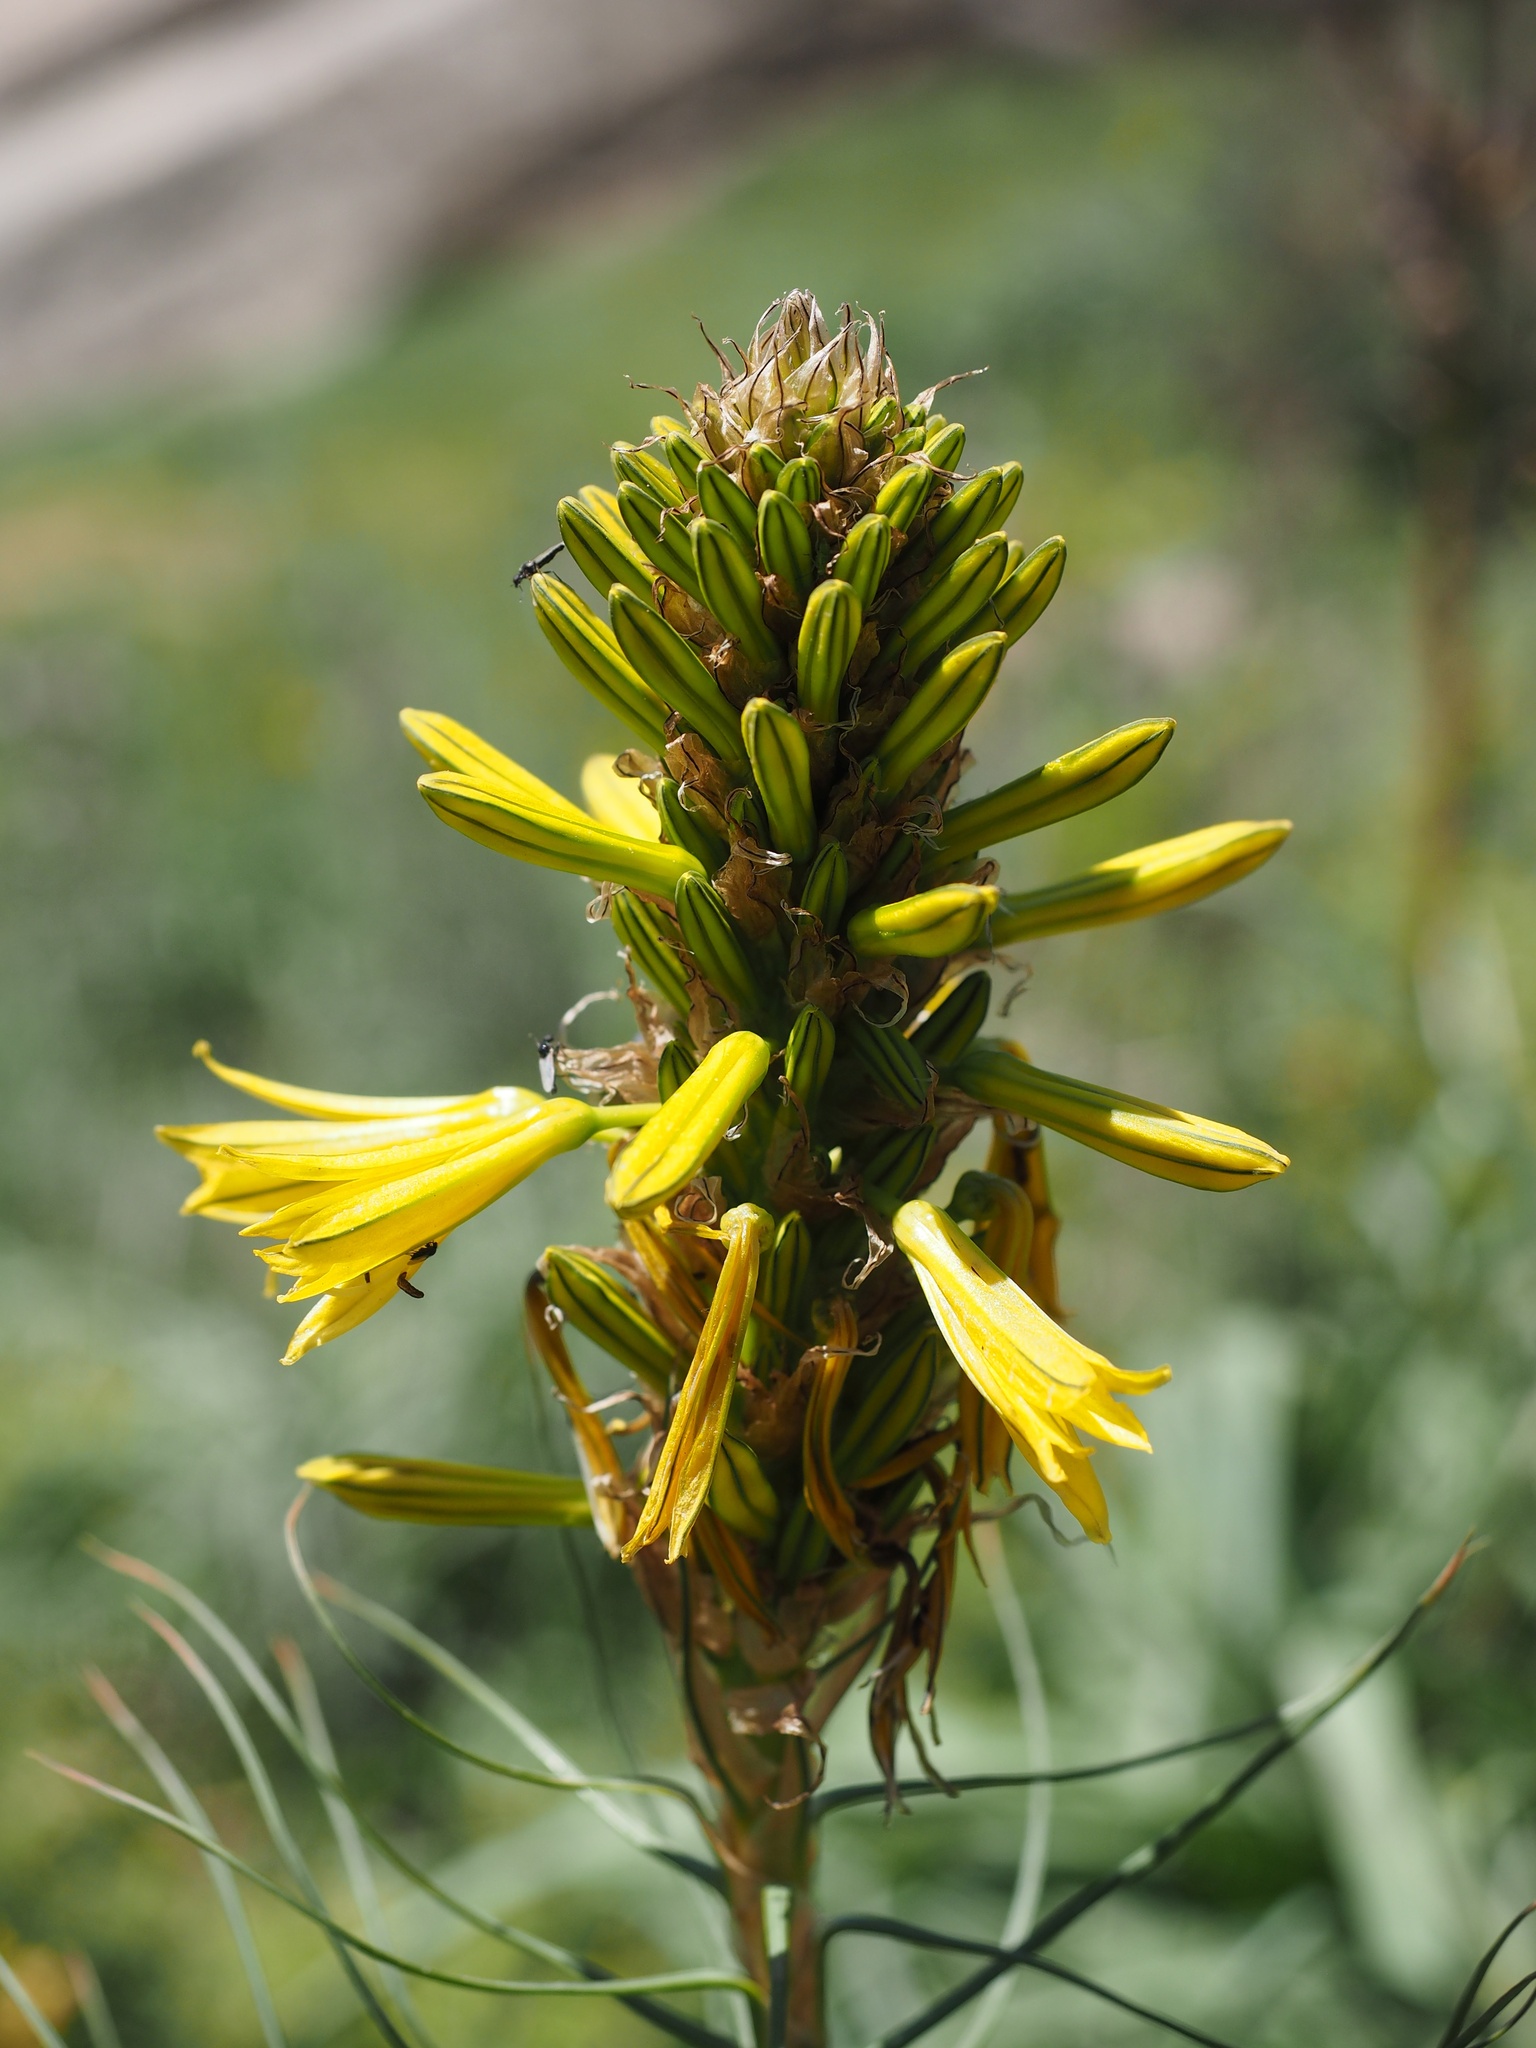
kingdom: Plantae
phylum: Tracheophyta
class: Liliopsida
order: Asparagales
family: Asphodelaceae
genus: Asphodeline
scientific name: Asphodeline lutea
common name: Yellow asphodel
